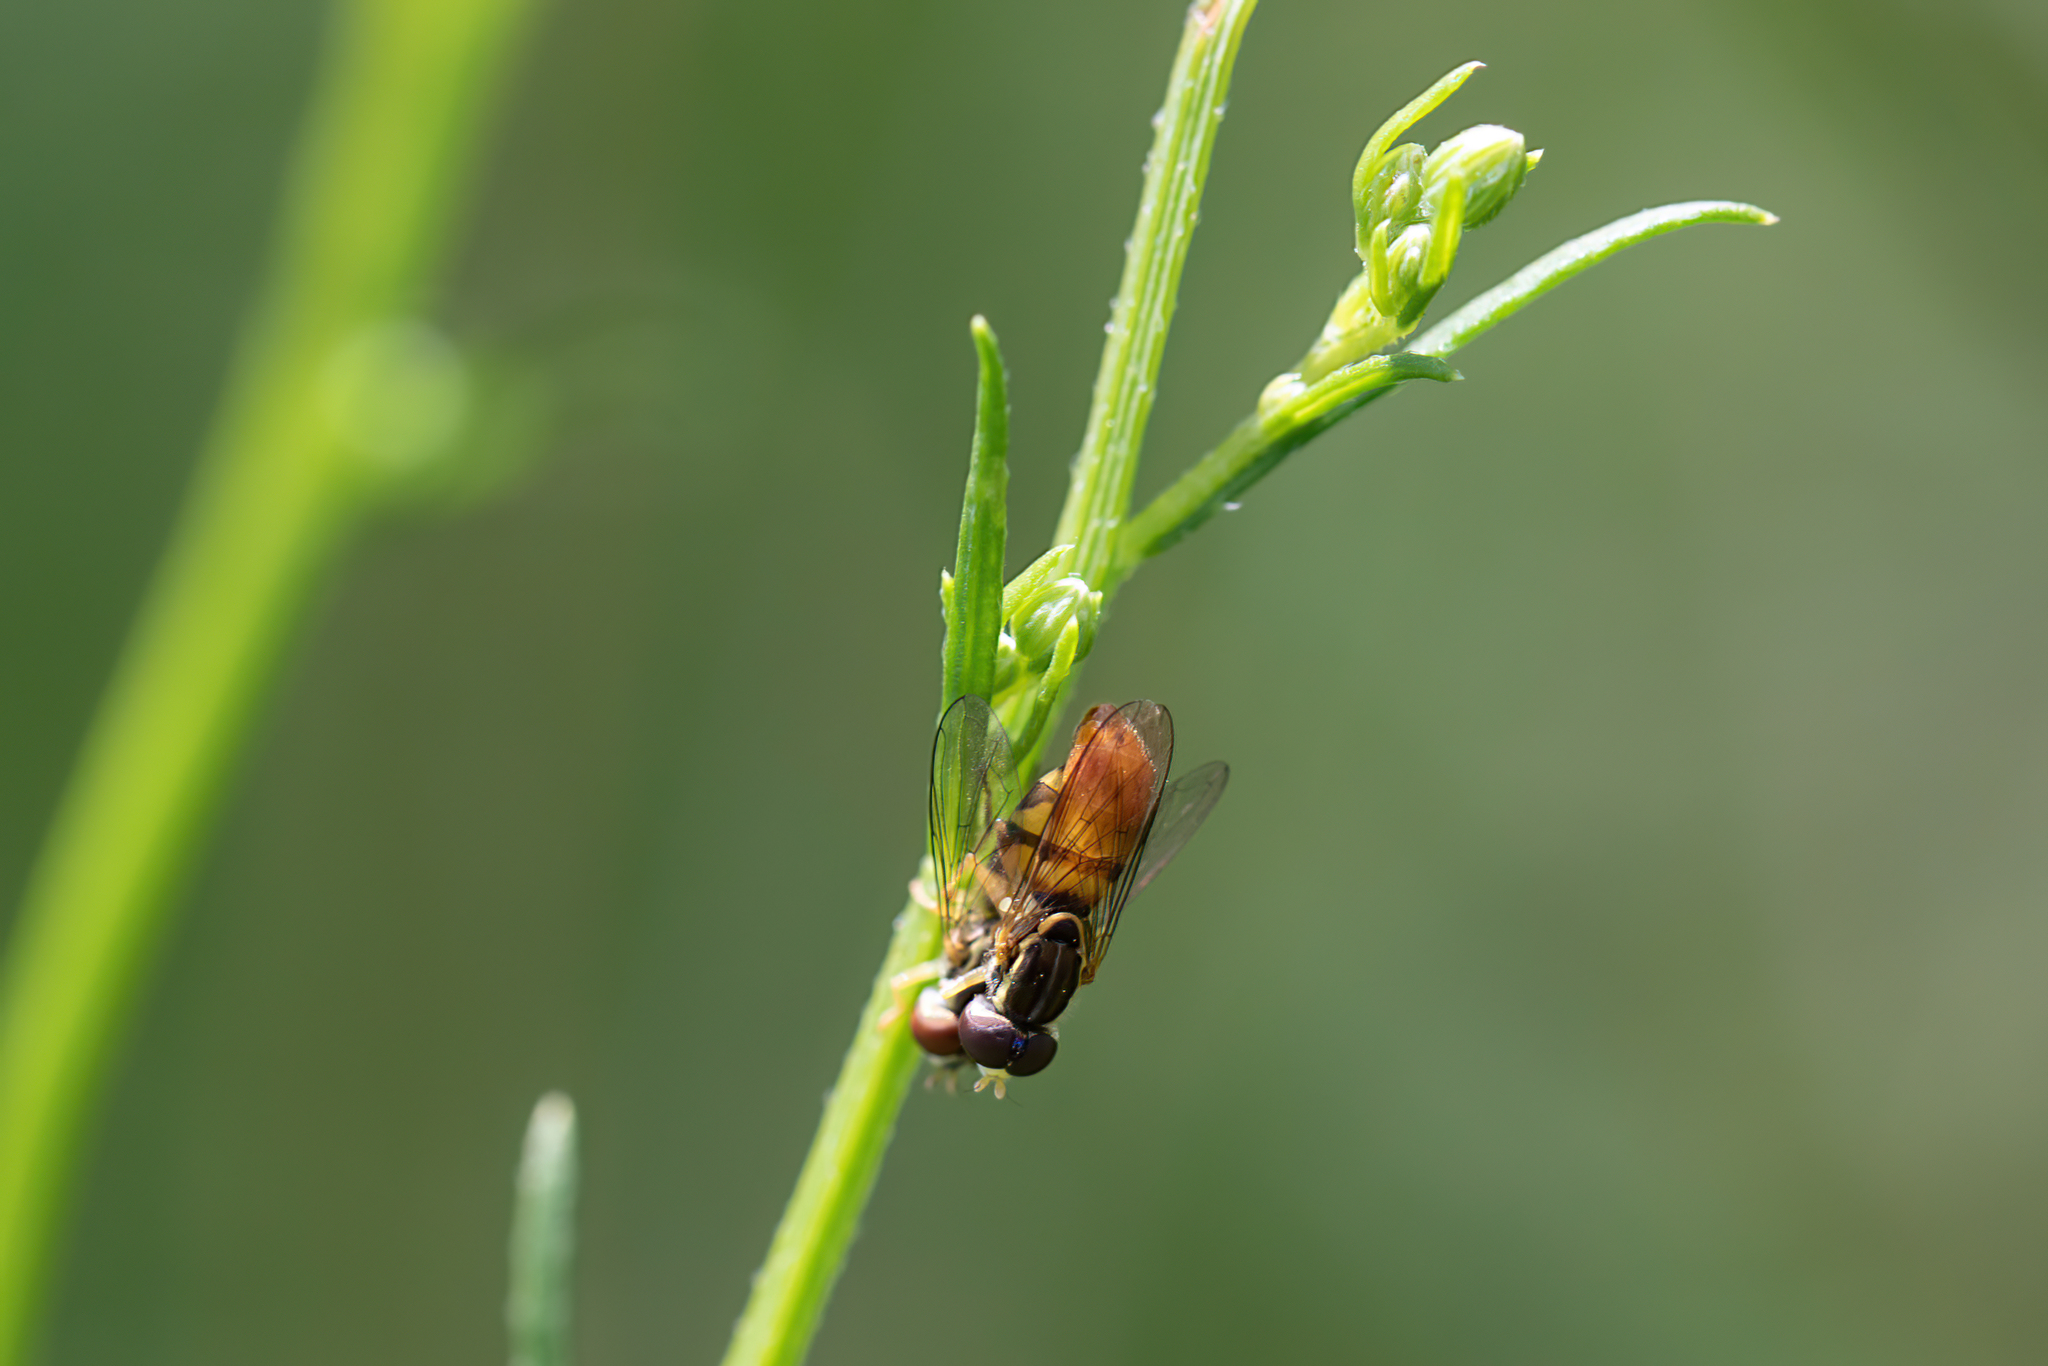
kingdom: Animalia
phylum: Arthropoda
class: Insecta
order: Diptera
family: Syrphidae
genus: Toxomerus
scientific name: Toxomerus floralis
